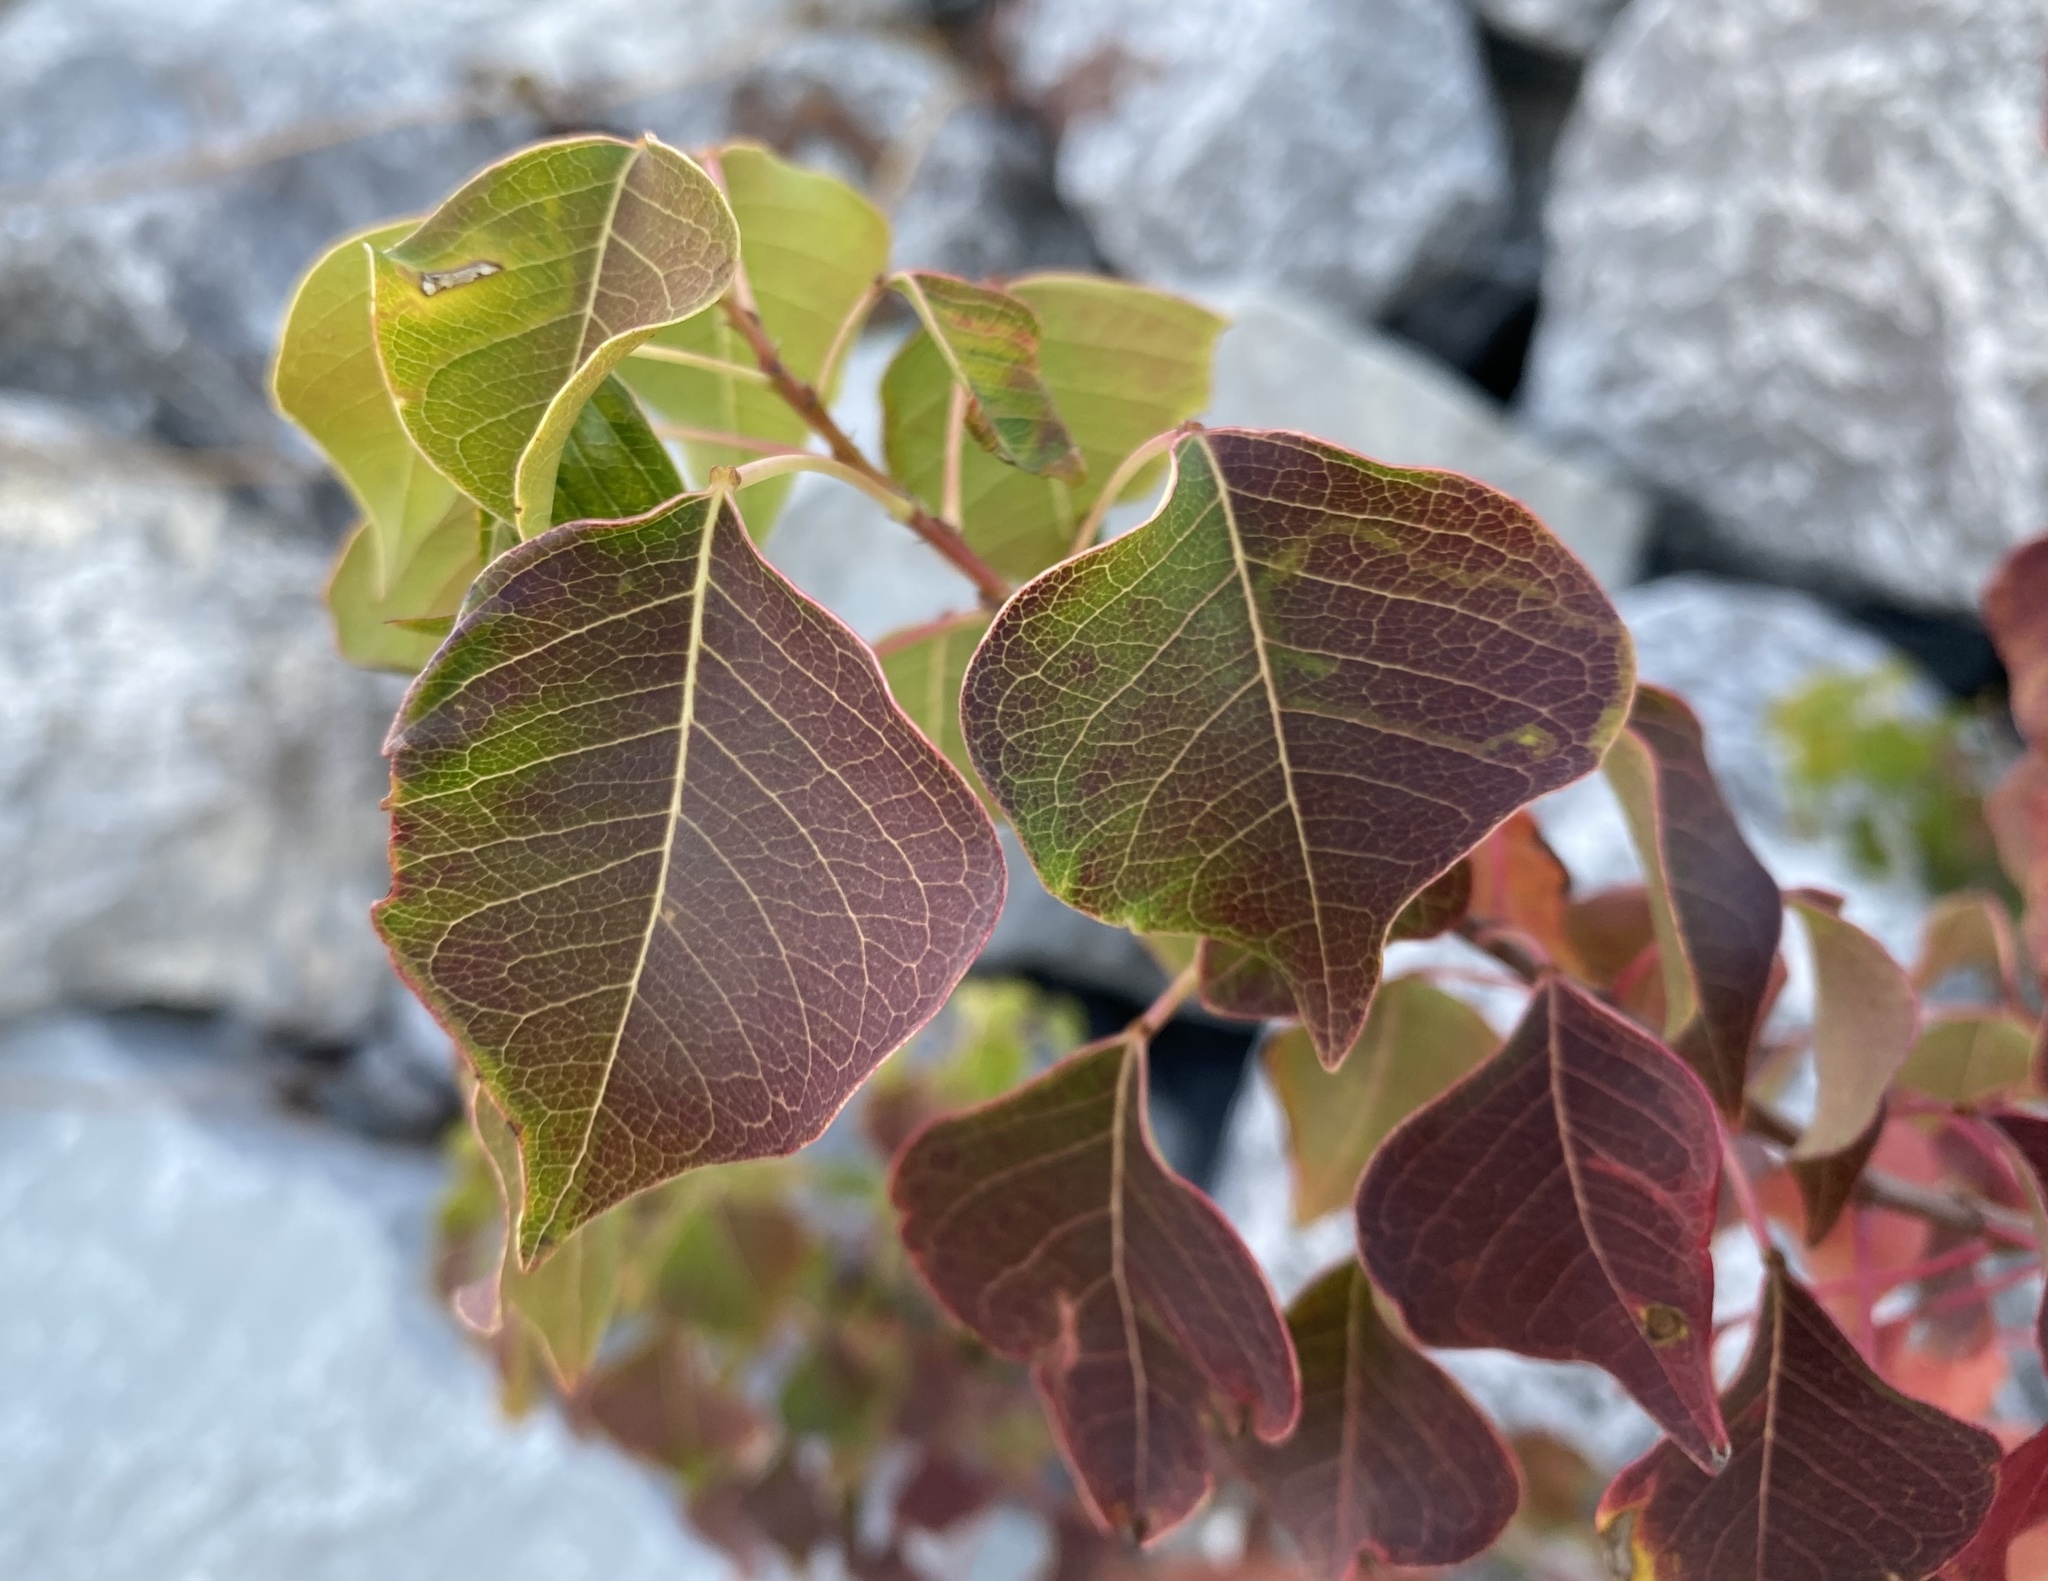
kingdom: Plantae
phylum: Tracheophyta
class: Magnoliopsida
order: Malpighiales
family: Euphorbiaceae
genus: Triadica
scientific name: Triadica sebifera
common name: Chinese tallow
